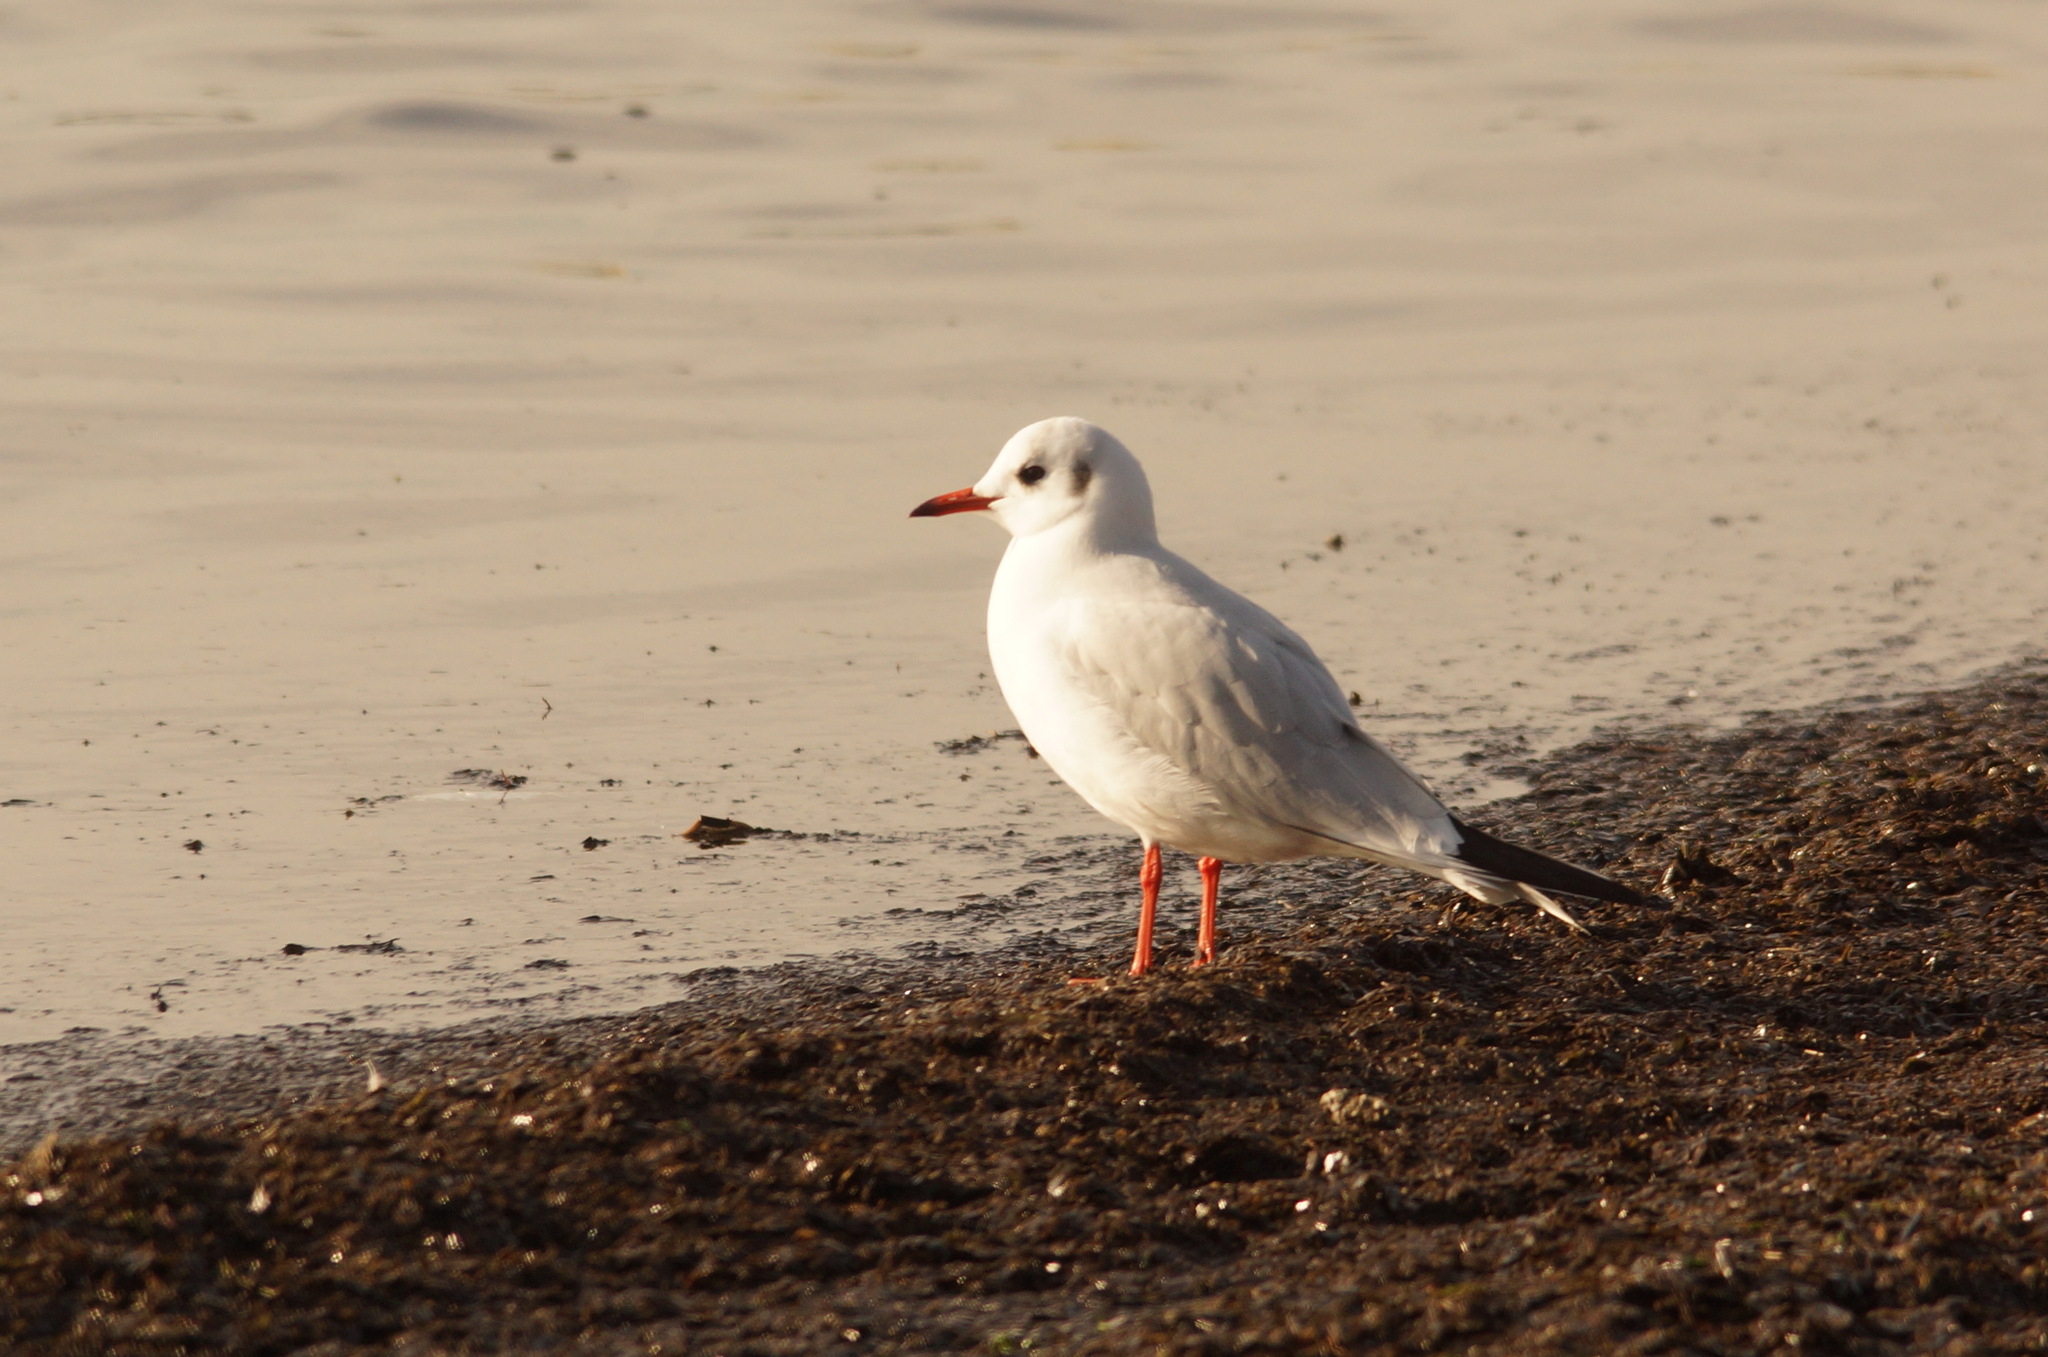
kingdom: Animalia
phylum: Chordata
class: Aves
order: Charadriiformes
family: Laridae
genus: Chroicocephalus
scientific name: Chroicocephalus ridibundus
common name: Black-headed gull
